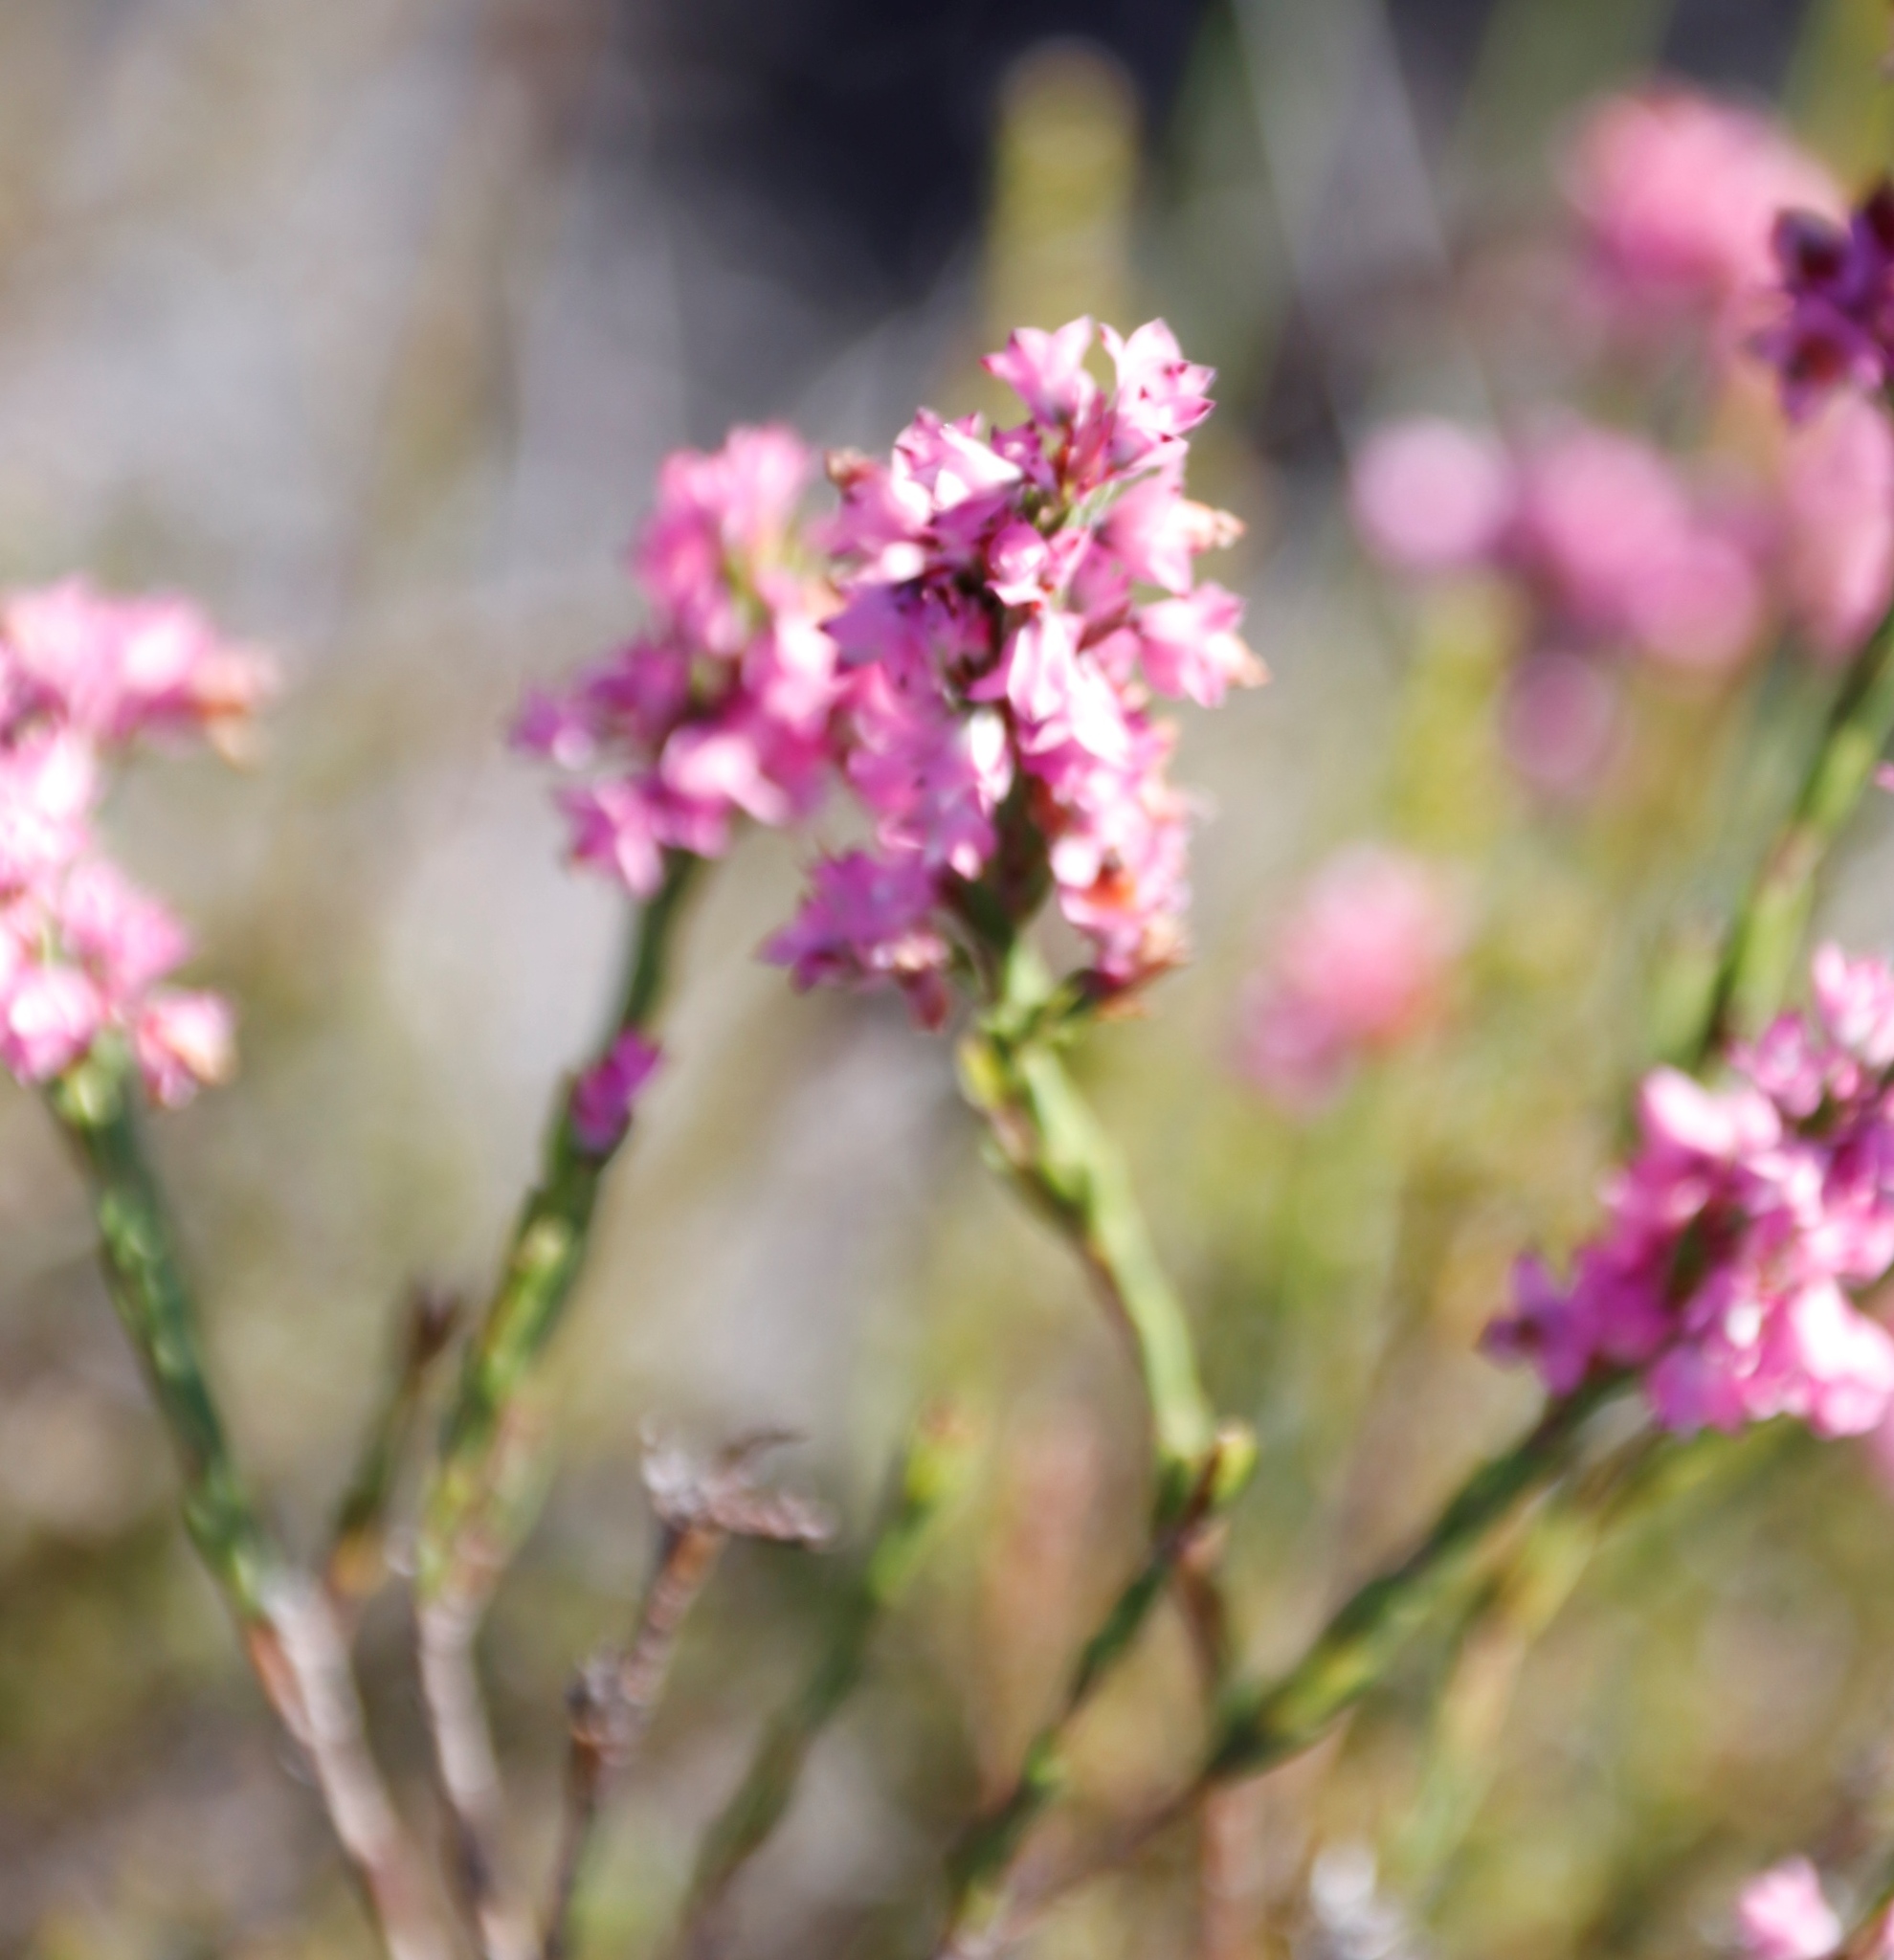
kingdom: Plantae
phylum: Tracheophyta
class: Magnoliopsida
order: Ericales
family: Ericaceae
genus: Erica
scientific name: Erica corifolia
